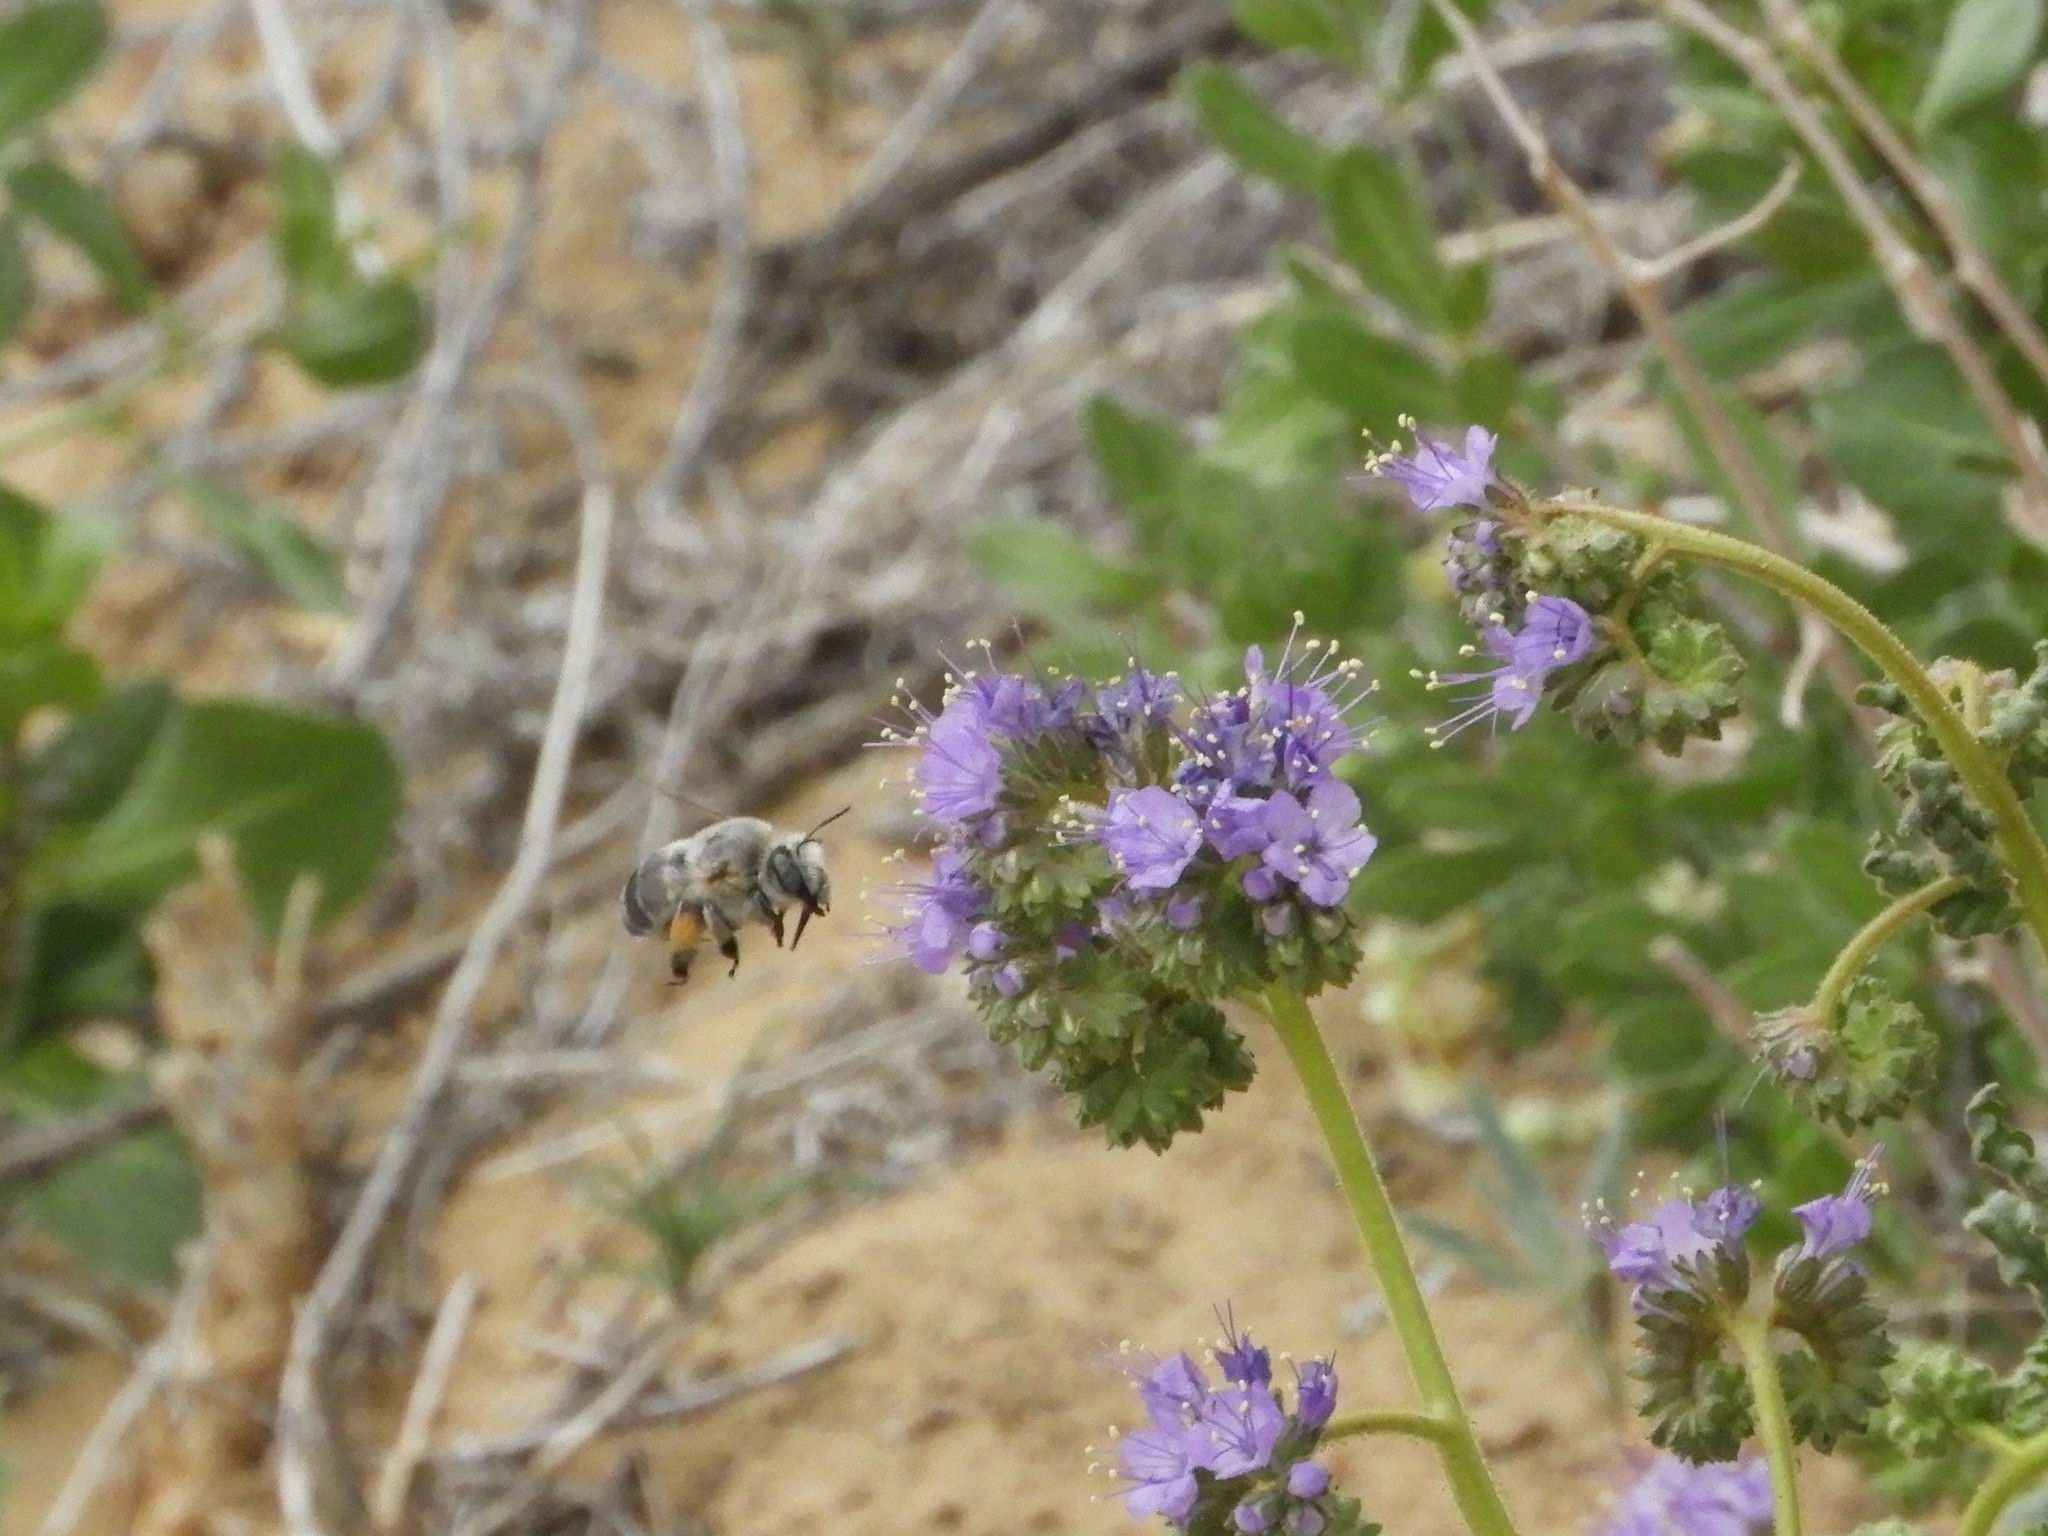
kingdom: Plantae
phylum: Tracheophyta
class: Magnoliopsida
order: Boraginales
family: Hydrophyllaceae
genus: Phacelia
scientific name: Phacelia crenulata
